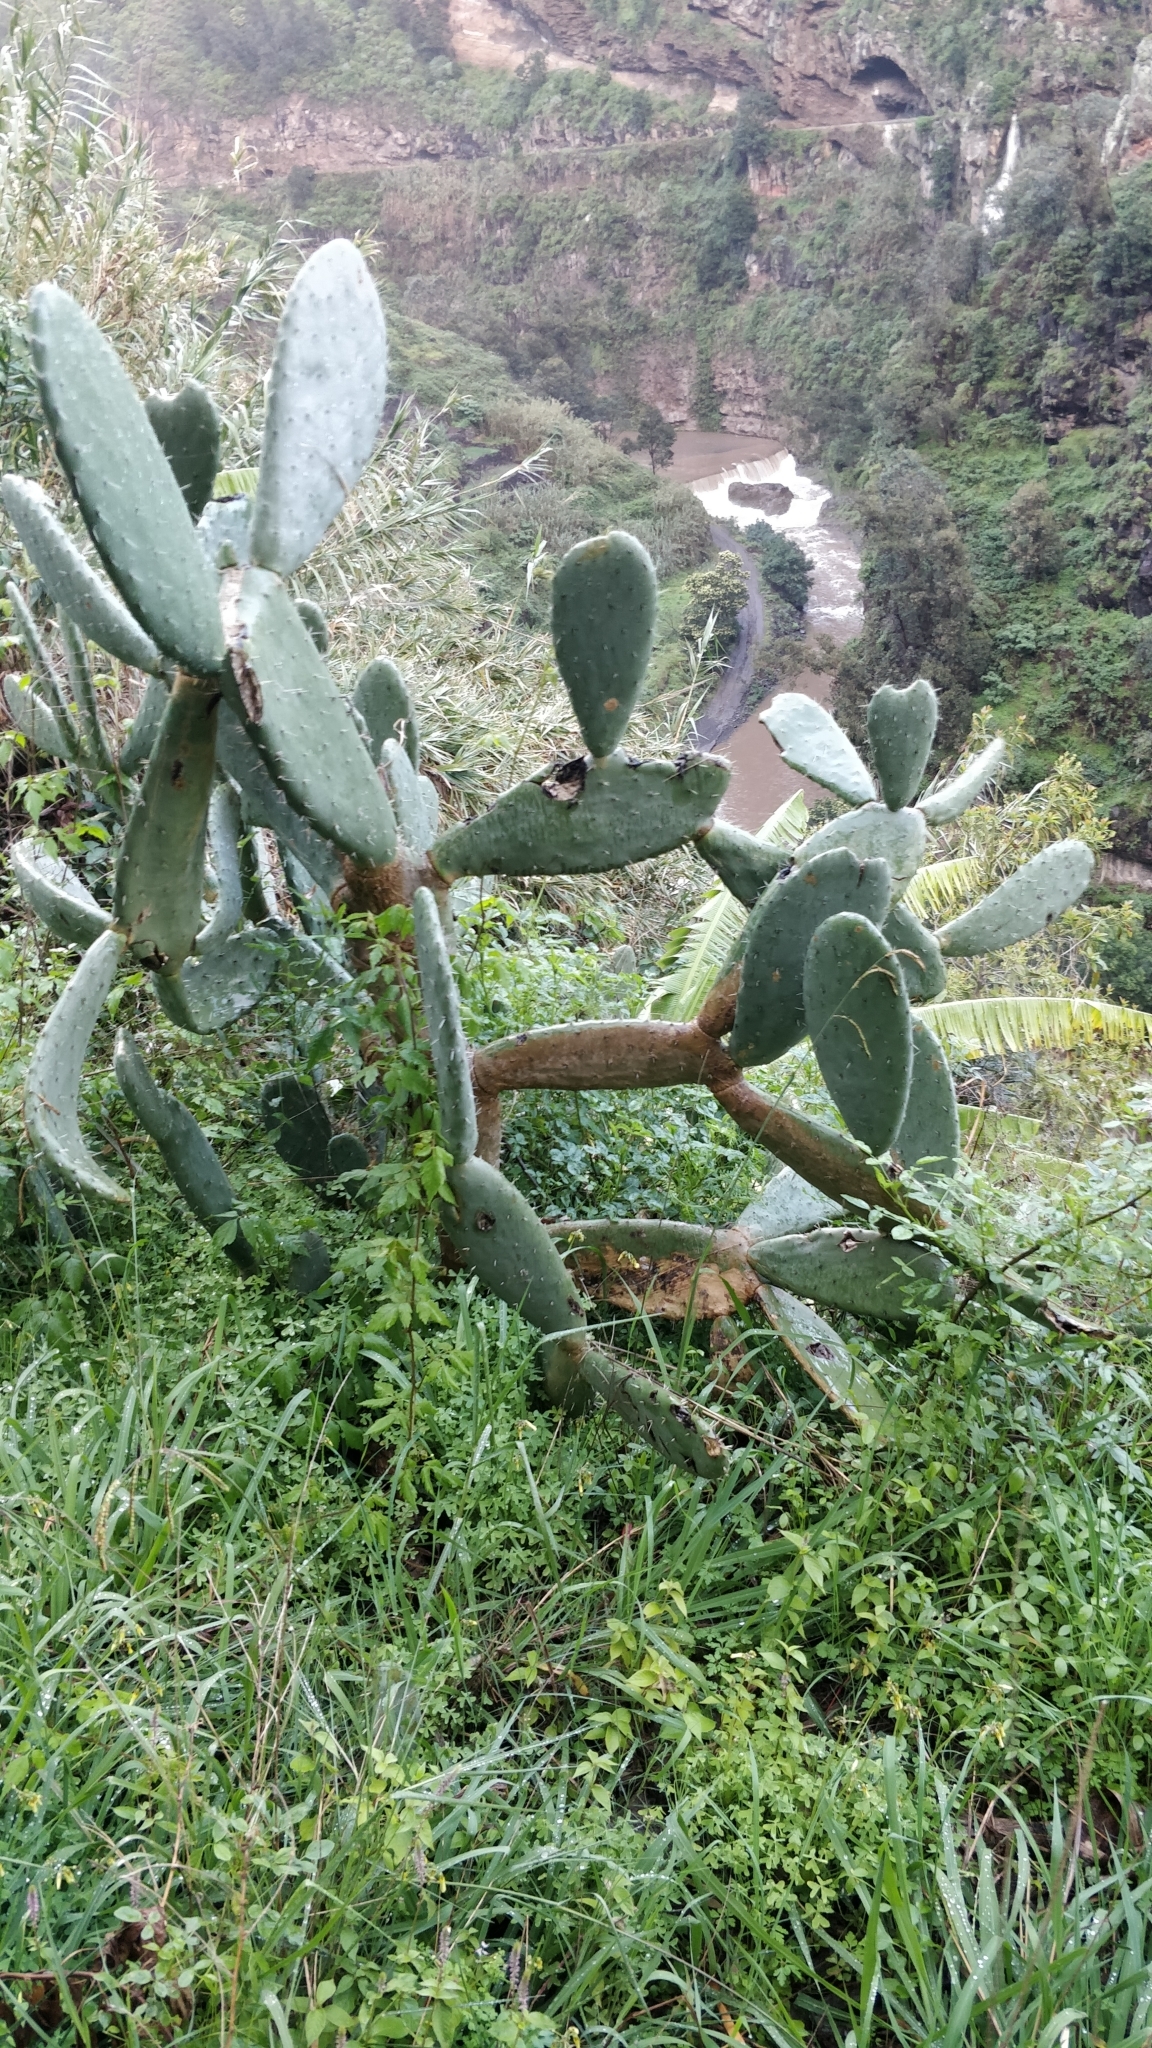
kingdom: Plantae
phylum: Tracheophyta
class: Magnoliopsida
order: Caryophyllales
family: Cactaceae
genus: Opuntia
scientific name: Opuntia ficus-indica
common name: Barbary fig
